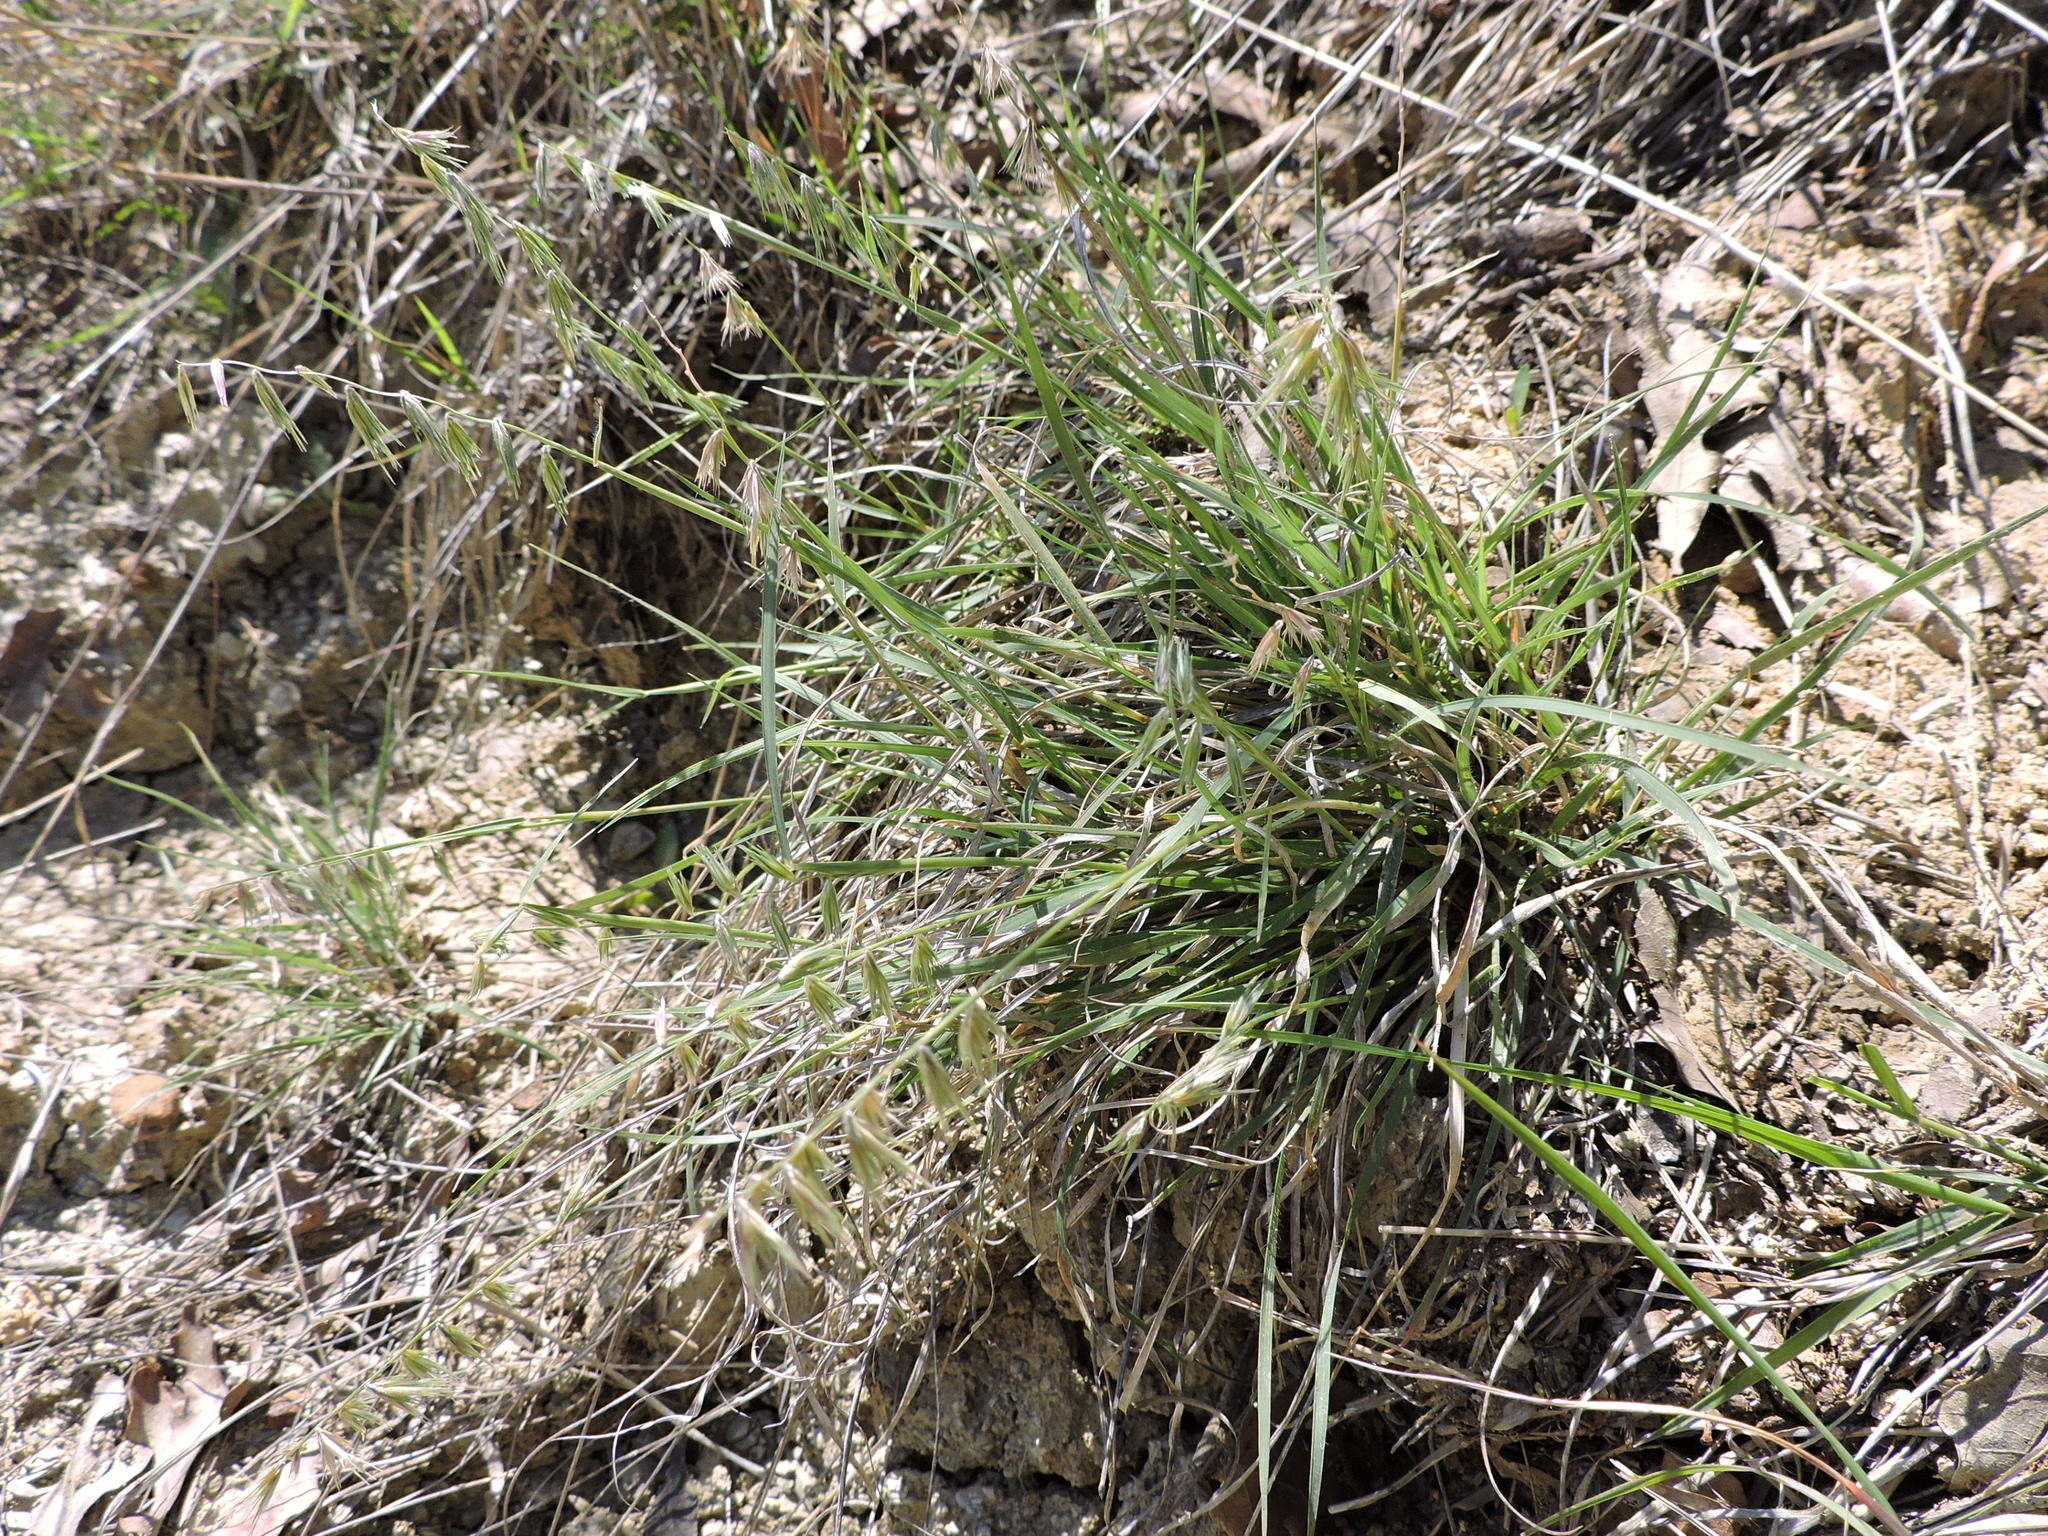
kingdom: Plantae
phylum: Tracheophyta
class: Liliopsida
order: Poales
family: Poaceae
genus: Bouteloua
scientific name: Bouteloua rigidiseta
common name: Texas grama
